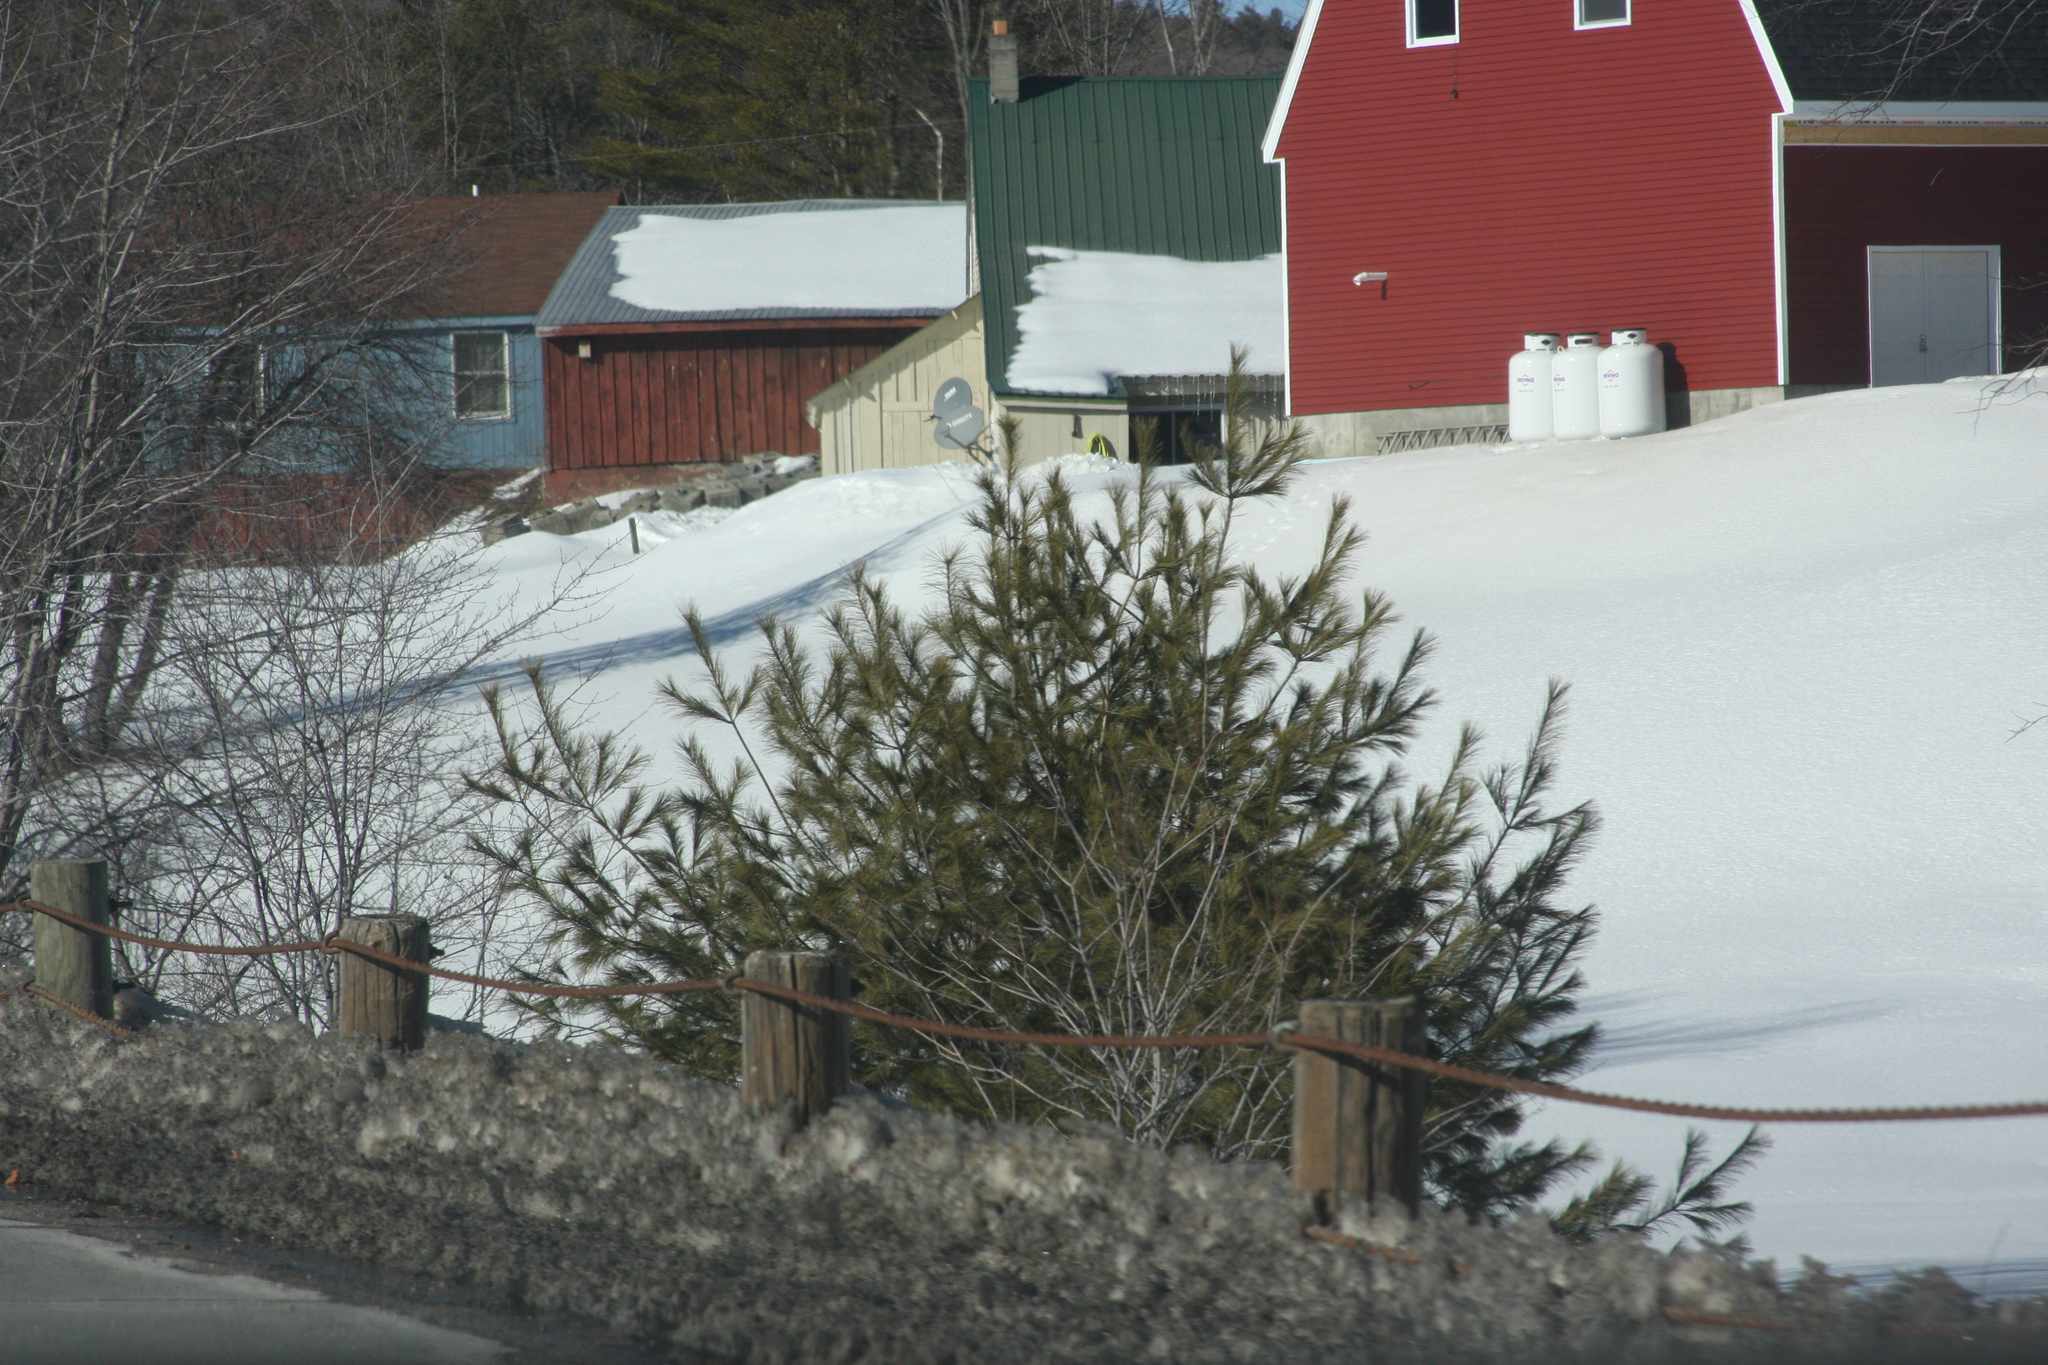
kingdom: Plantae
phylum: Tracheophyta
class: Pinopsida
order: Pinales
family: Pinaceae
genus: Pinus
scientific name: Pinus strobus
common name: Weymouth pine
